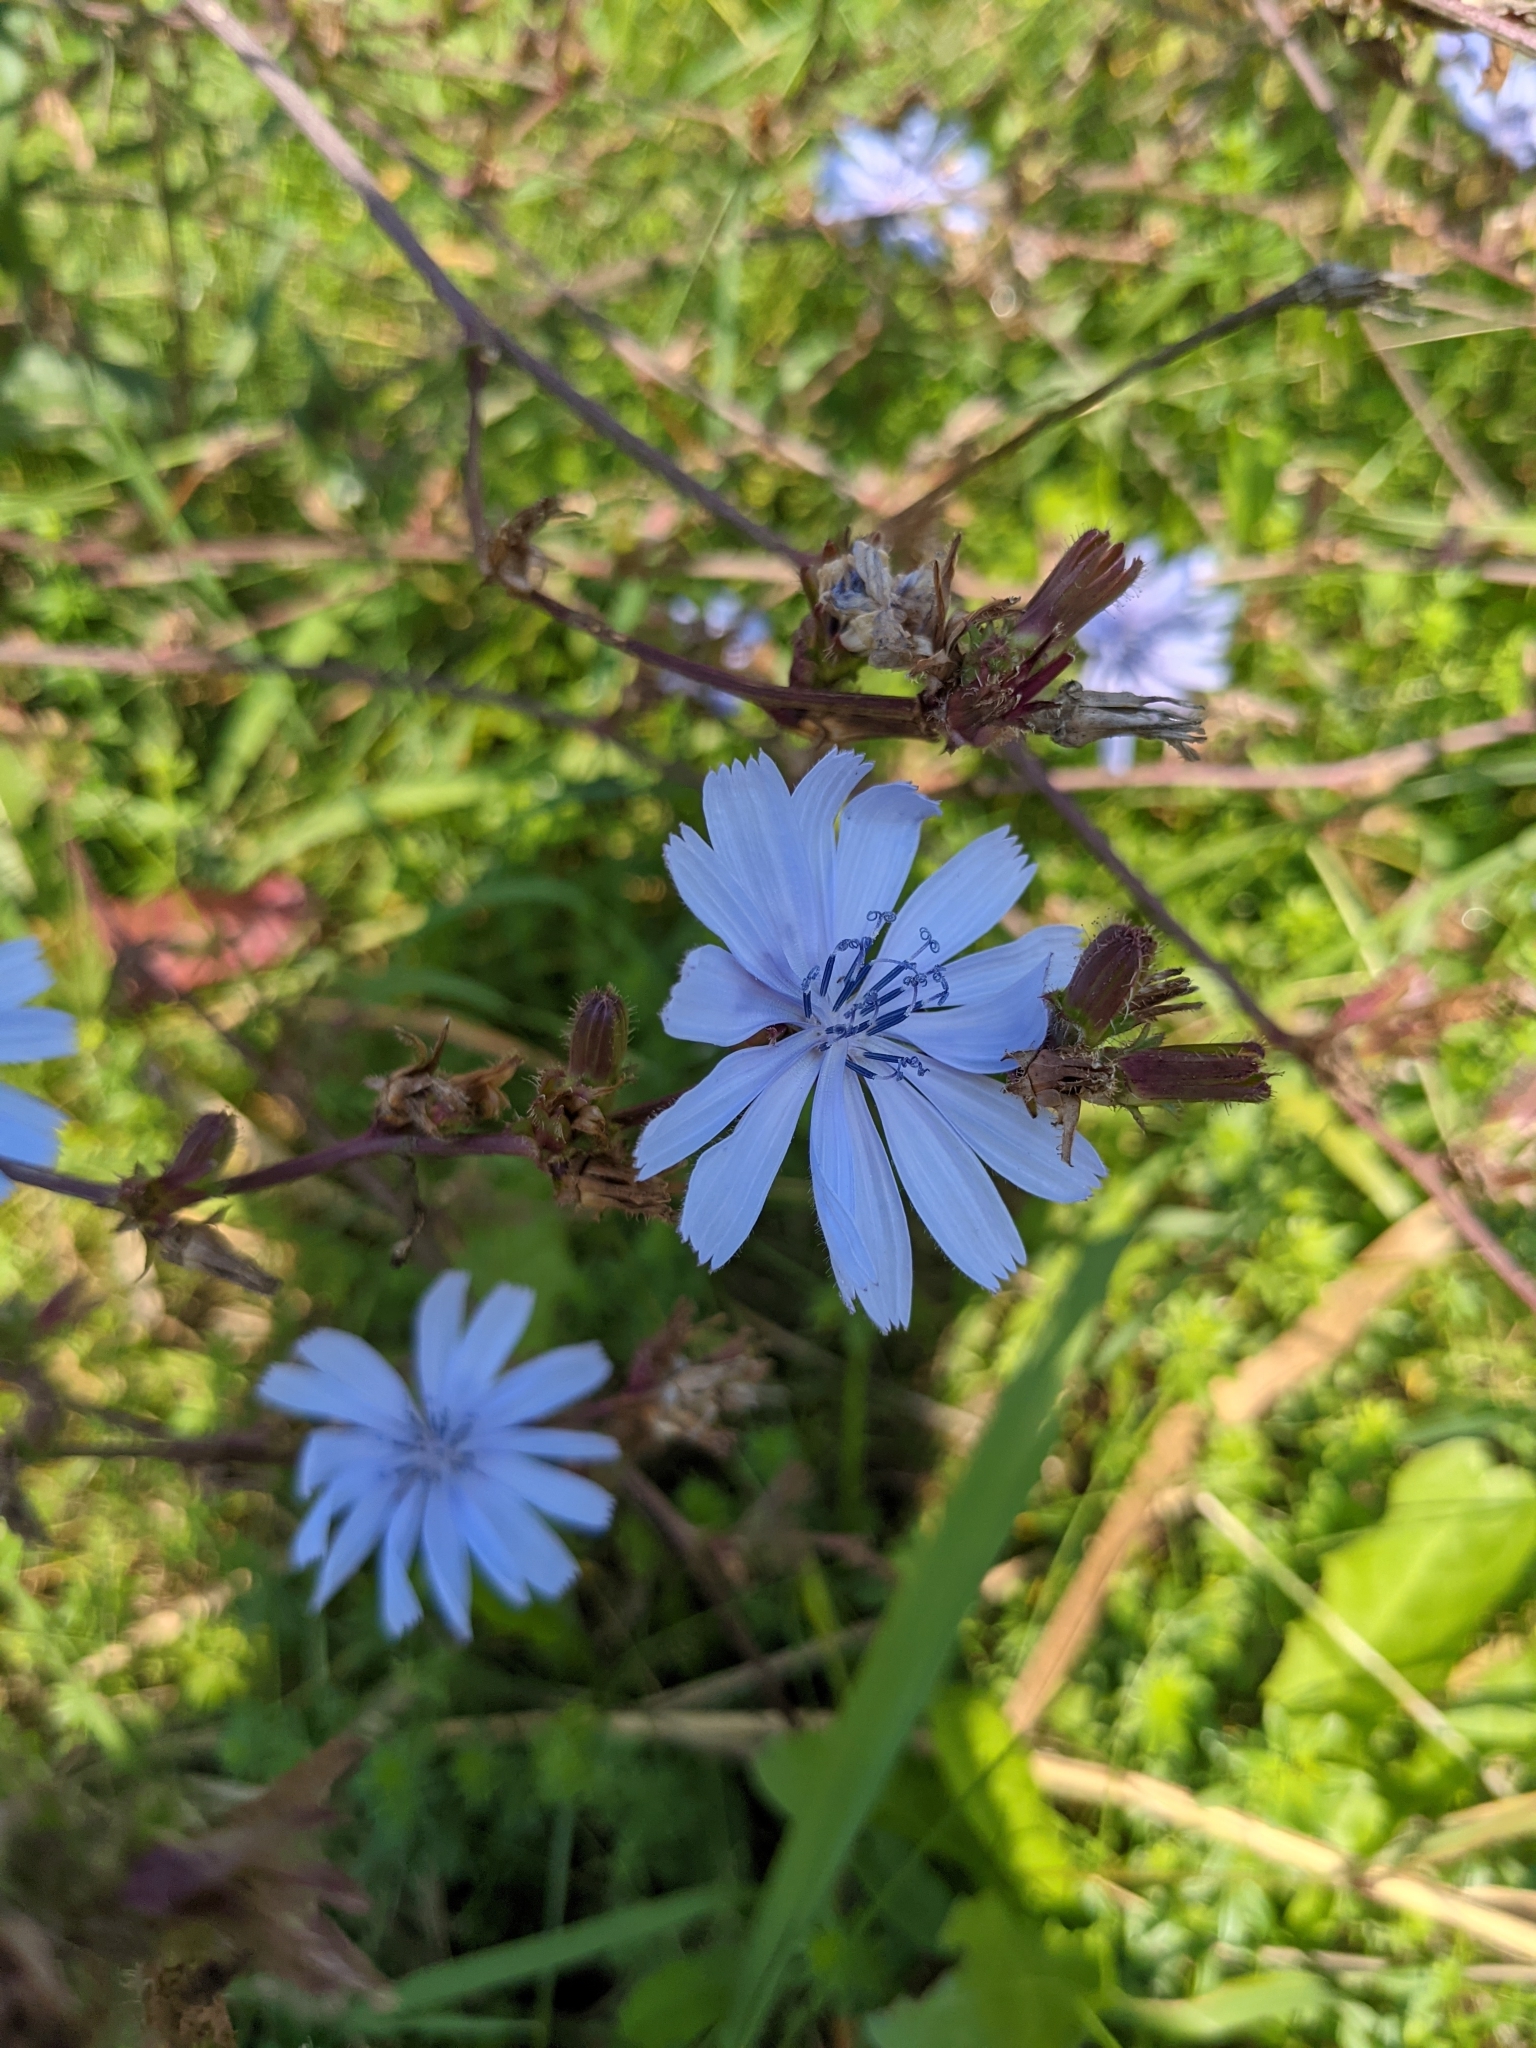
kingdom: Plantae
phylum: Tracheophyta
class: Magnoliopsida
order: Asterales
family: Asteraceae
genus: Cichorium
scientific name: Cichorium intybus
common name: Chicory
